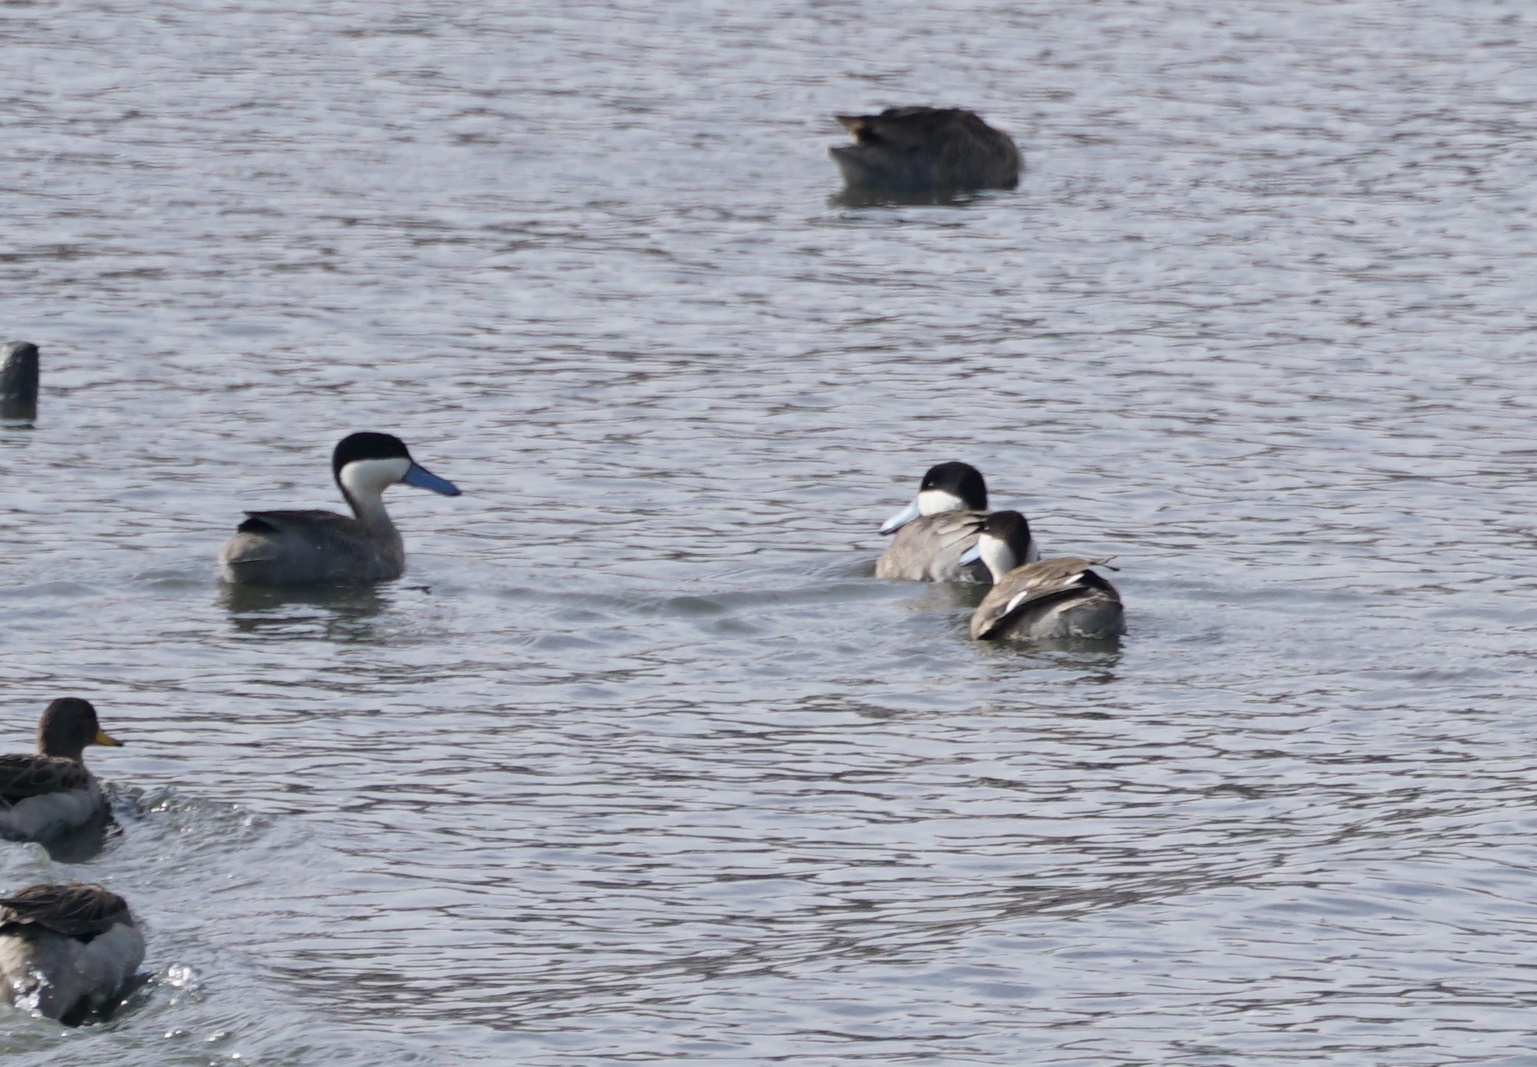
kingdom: Animalia
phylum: Chordata
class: Aves
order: Anseriformes
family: Anatidae
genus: Spatula
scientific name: Spatula puna
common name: Puna teal
